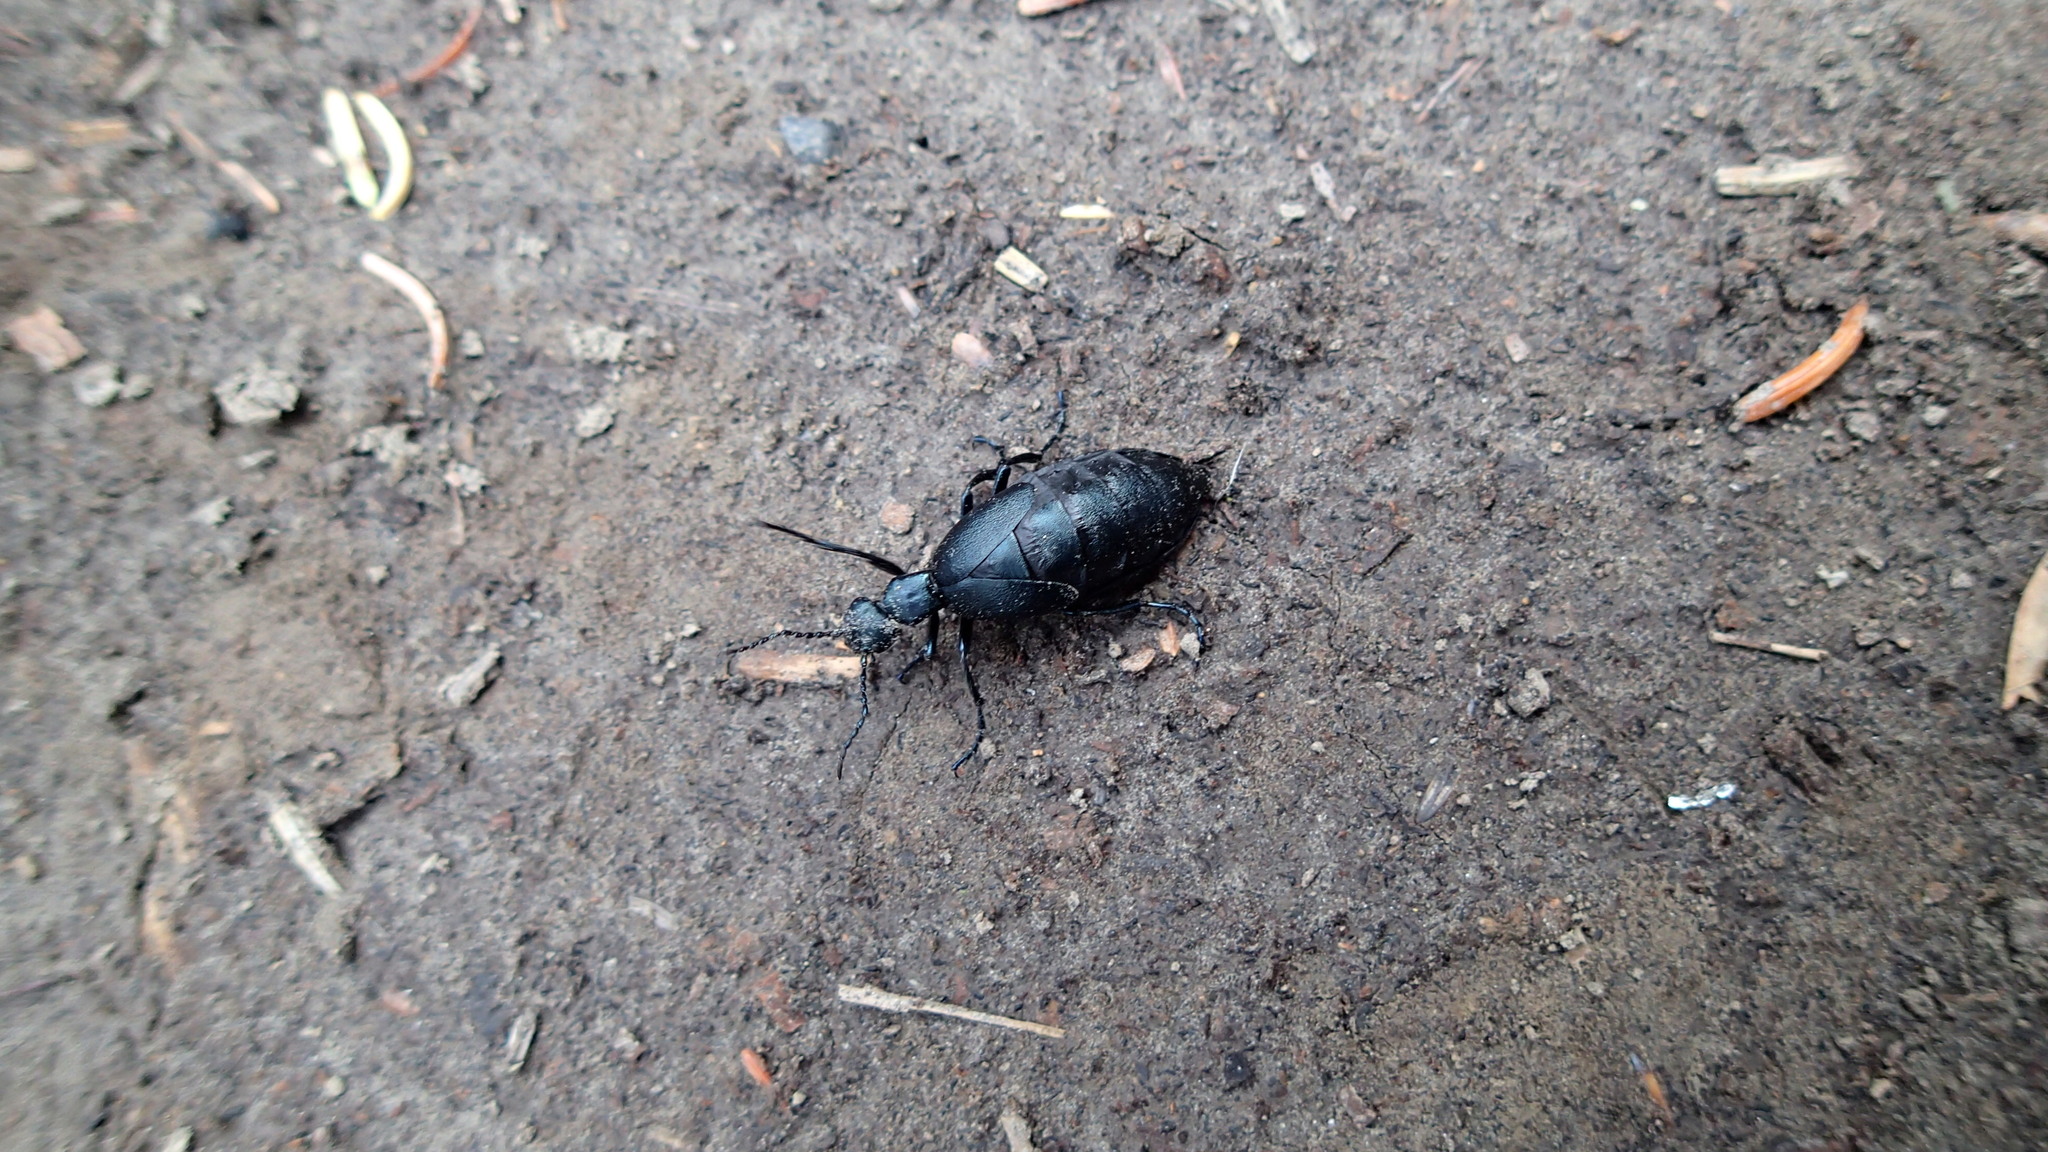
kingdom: Animalia
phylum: Arthropoda
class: Insecta
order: Coleoptera
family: Meloidae
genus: Meloe
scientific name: Meloe impressus
